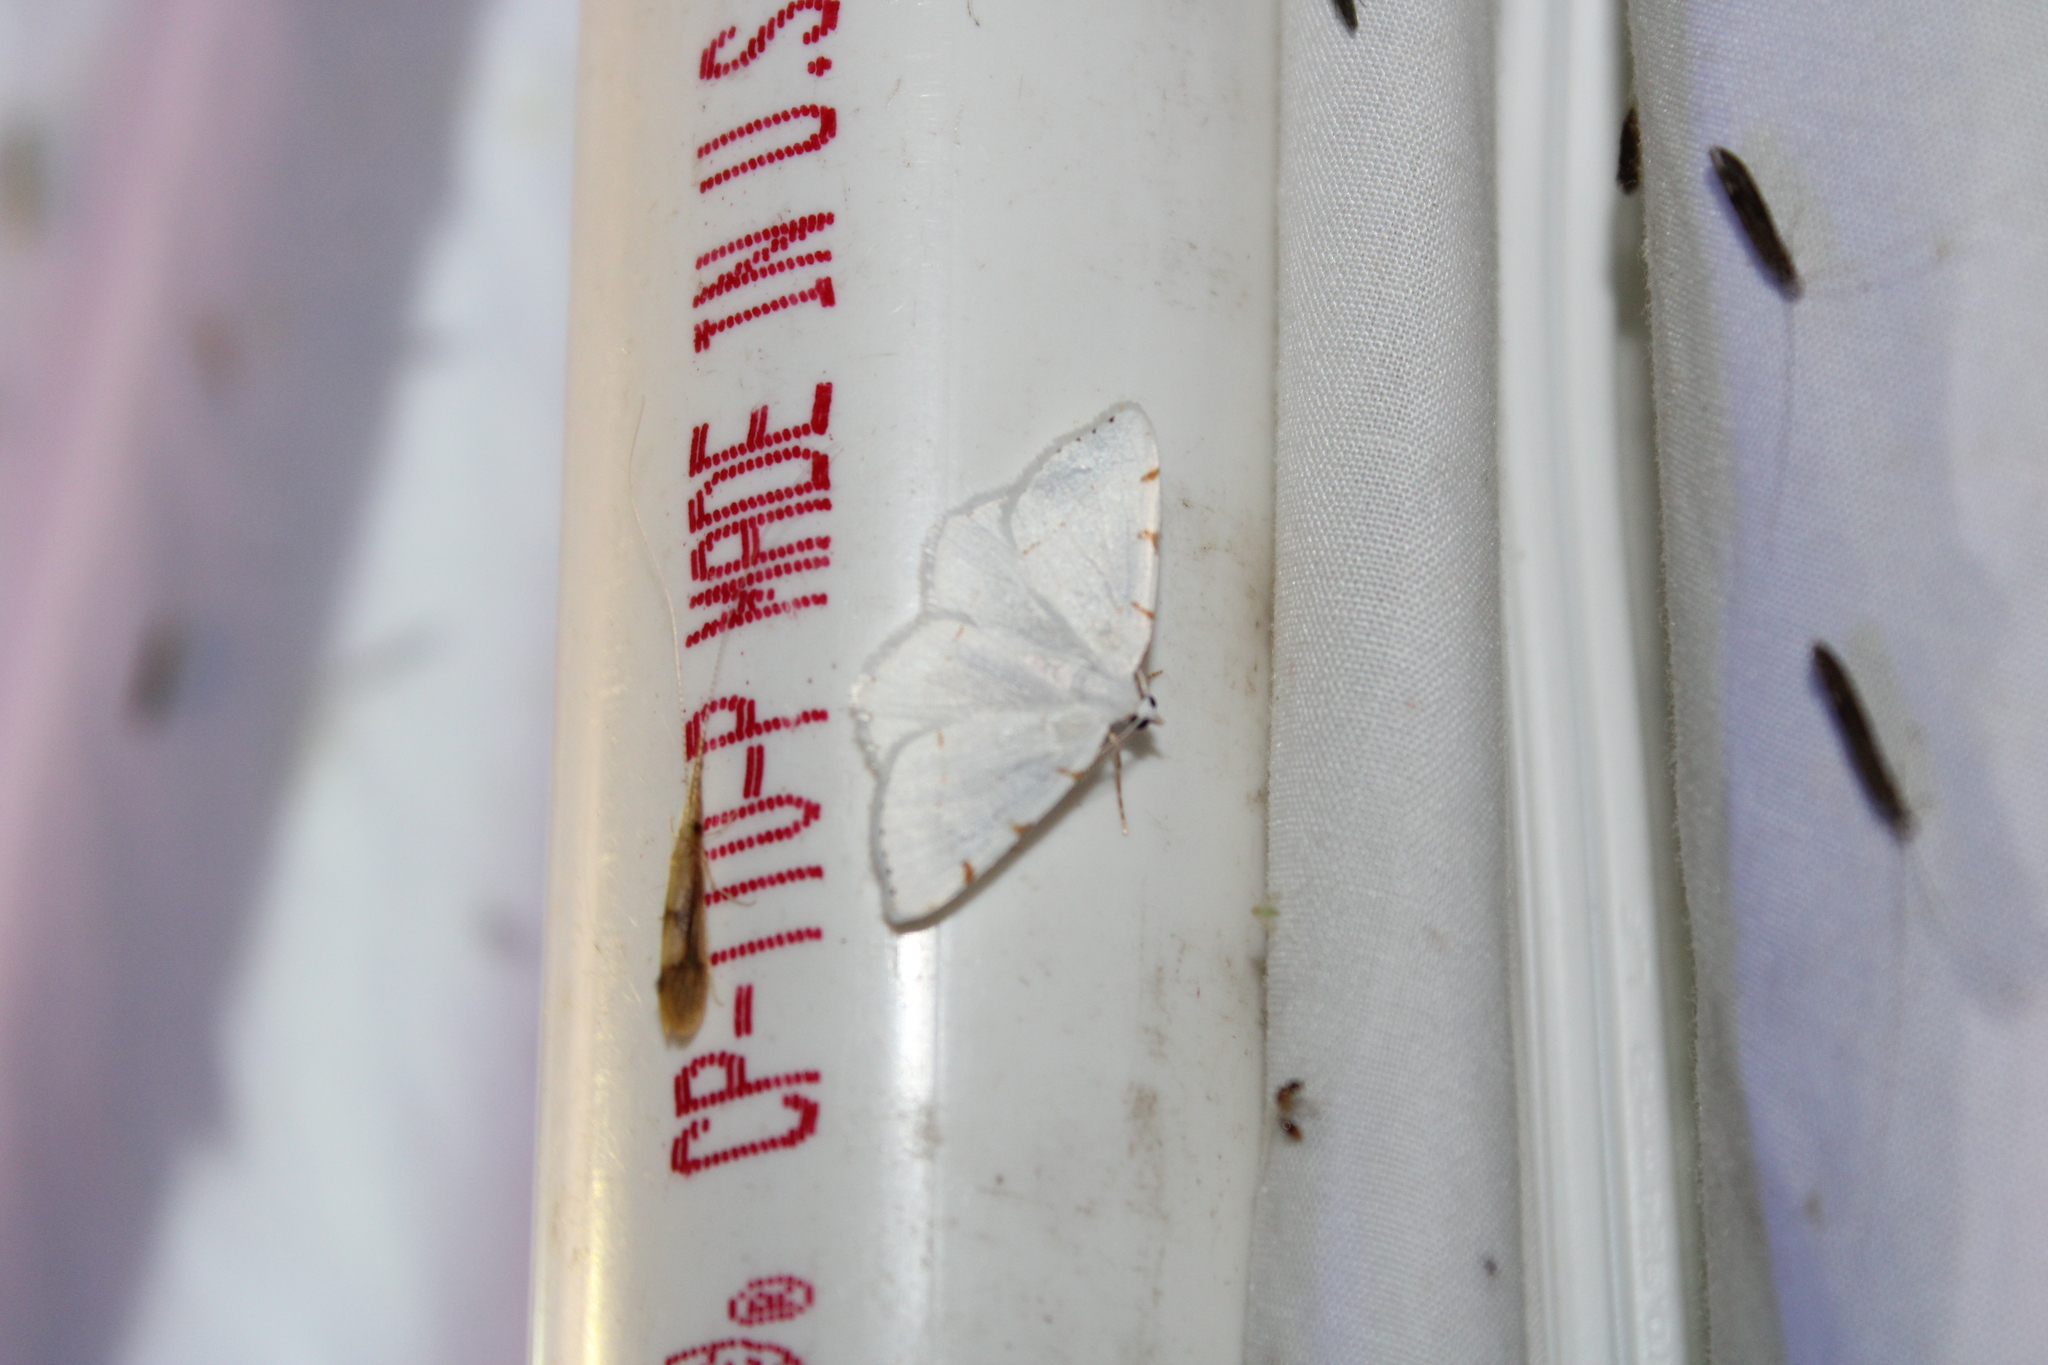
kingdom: Animalia
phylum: Arthropoda
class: Insecta
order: Lepidoptera
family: Geometridae
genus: Macaria
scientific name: Macaria pustularia
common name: Lesser maple spanworm moth
